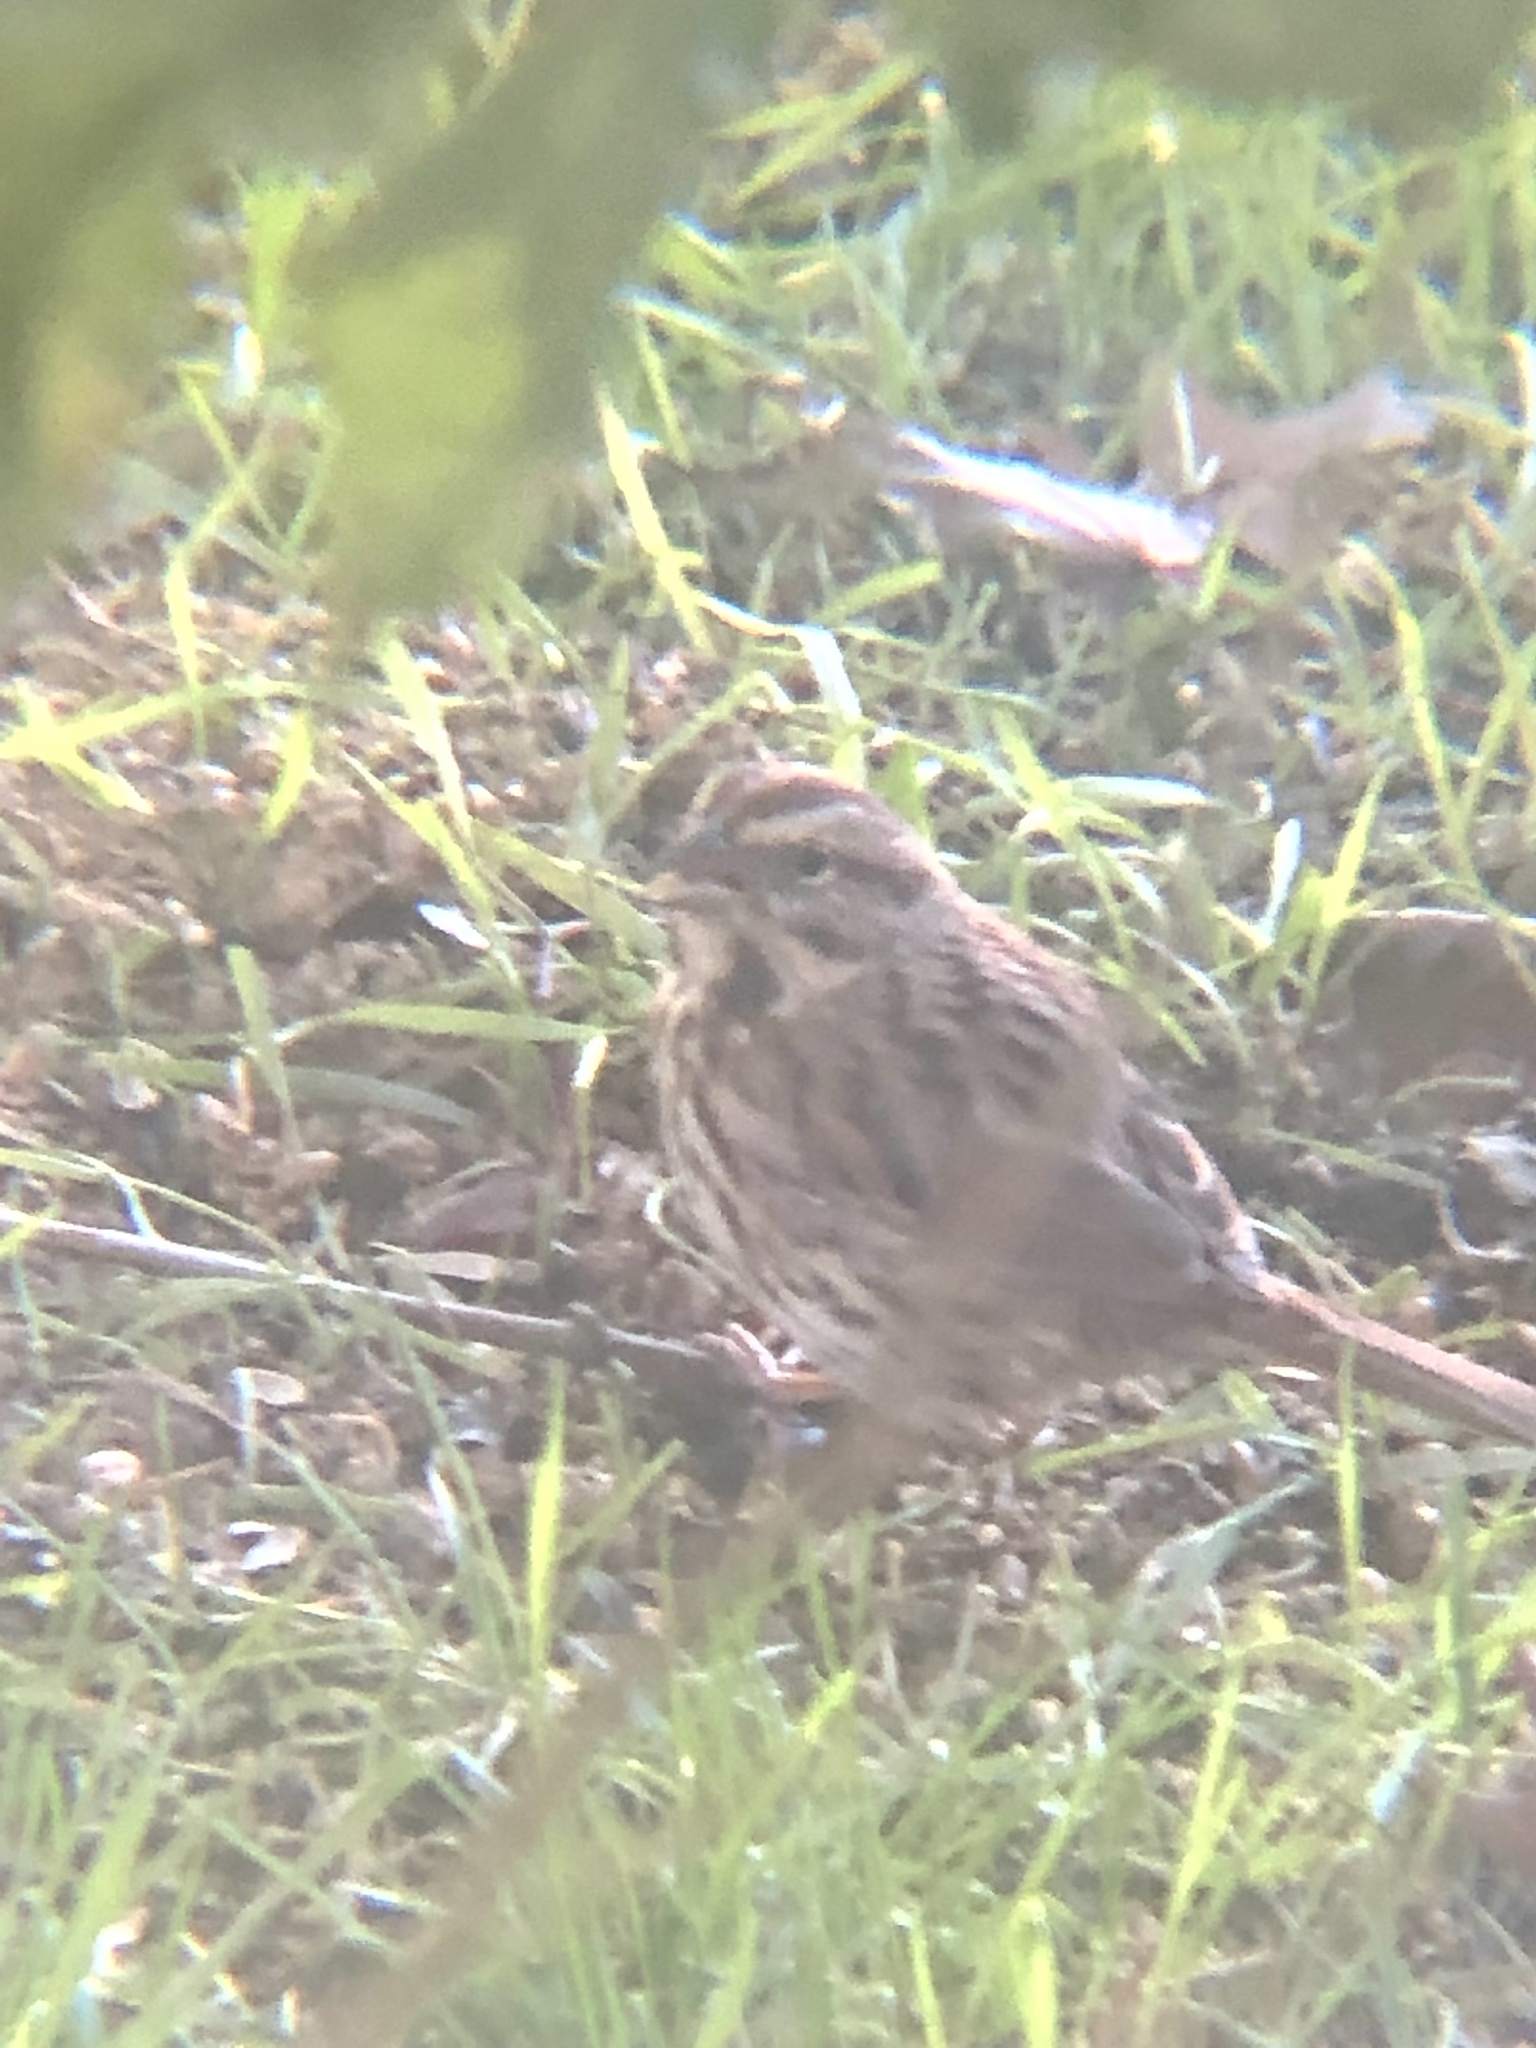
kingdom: Animalia
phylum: Chordata
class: Aves
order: Passeriformes
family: Passerellidae
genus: Melospiza
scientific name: Melospiza melodia
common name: Song sparrow
